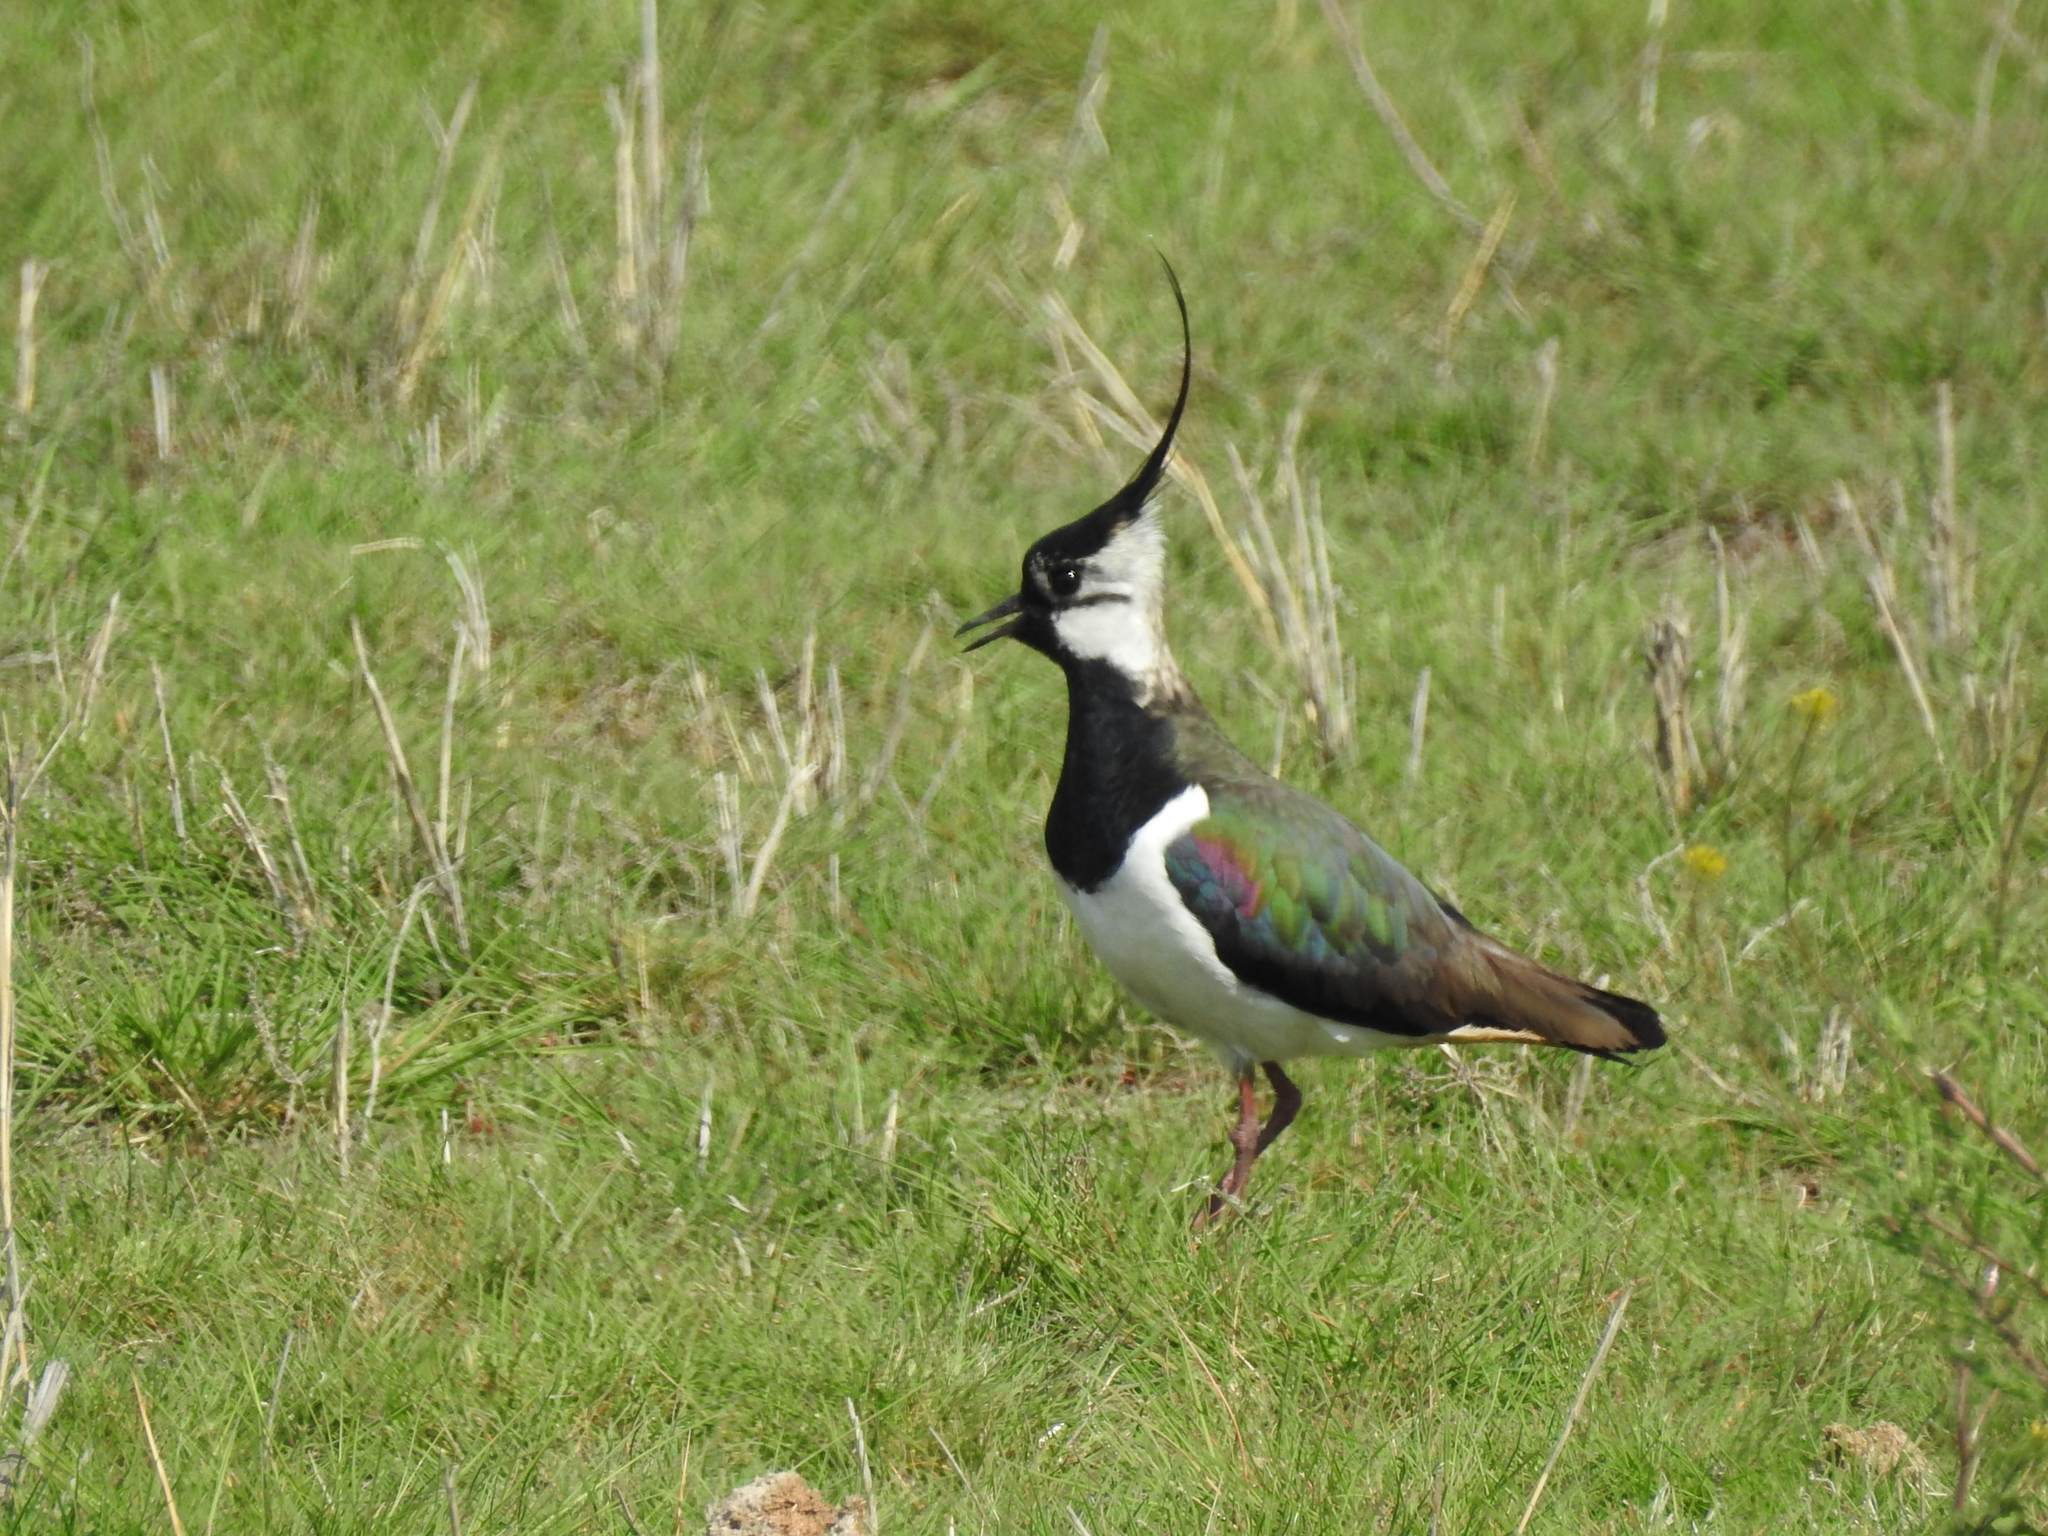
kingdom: Animalia
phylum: Chordata
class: Aves
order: Charadriiformes
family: Charadriidae
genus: Vanellus
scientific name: Vanellus vanellus
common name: Northern lapwing
